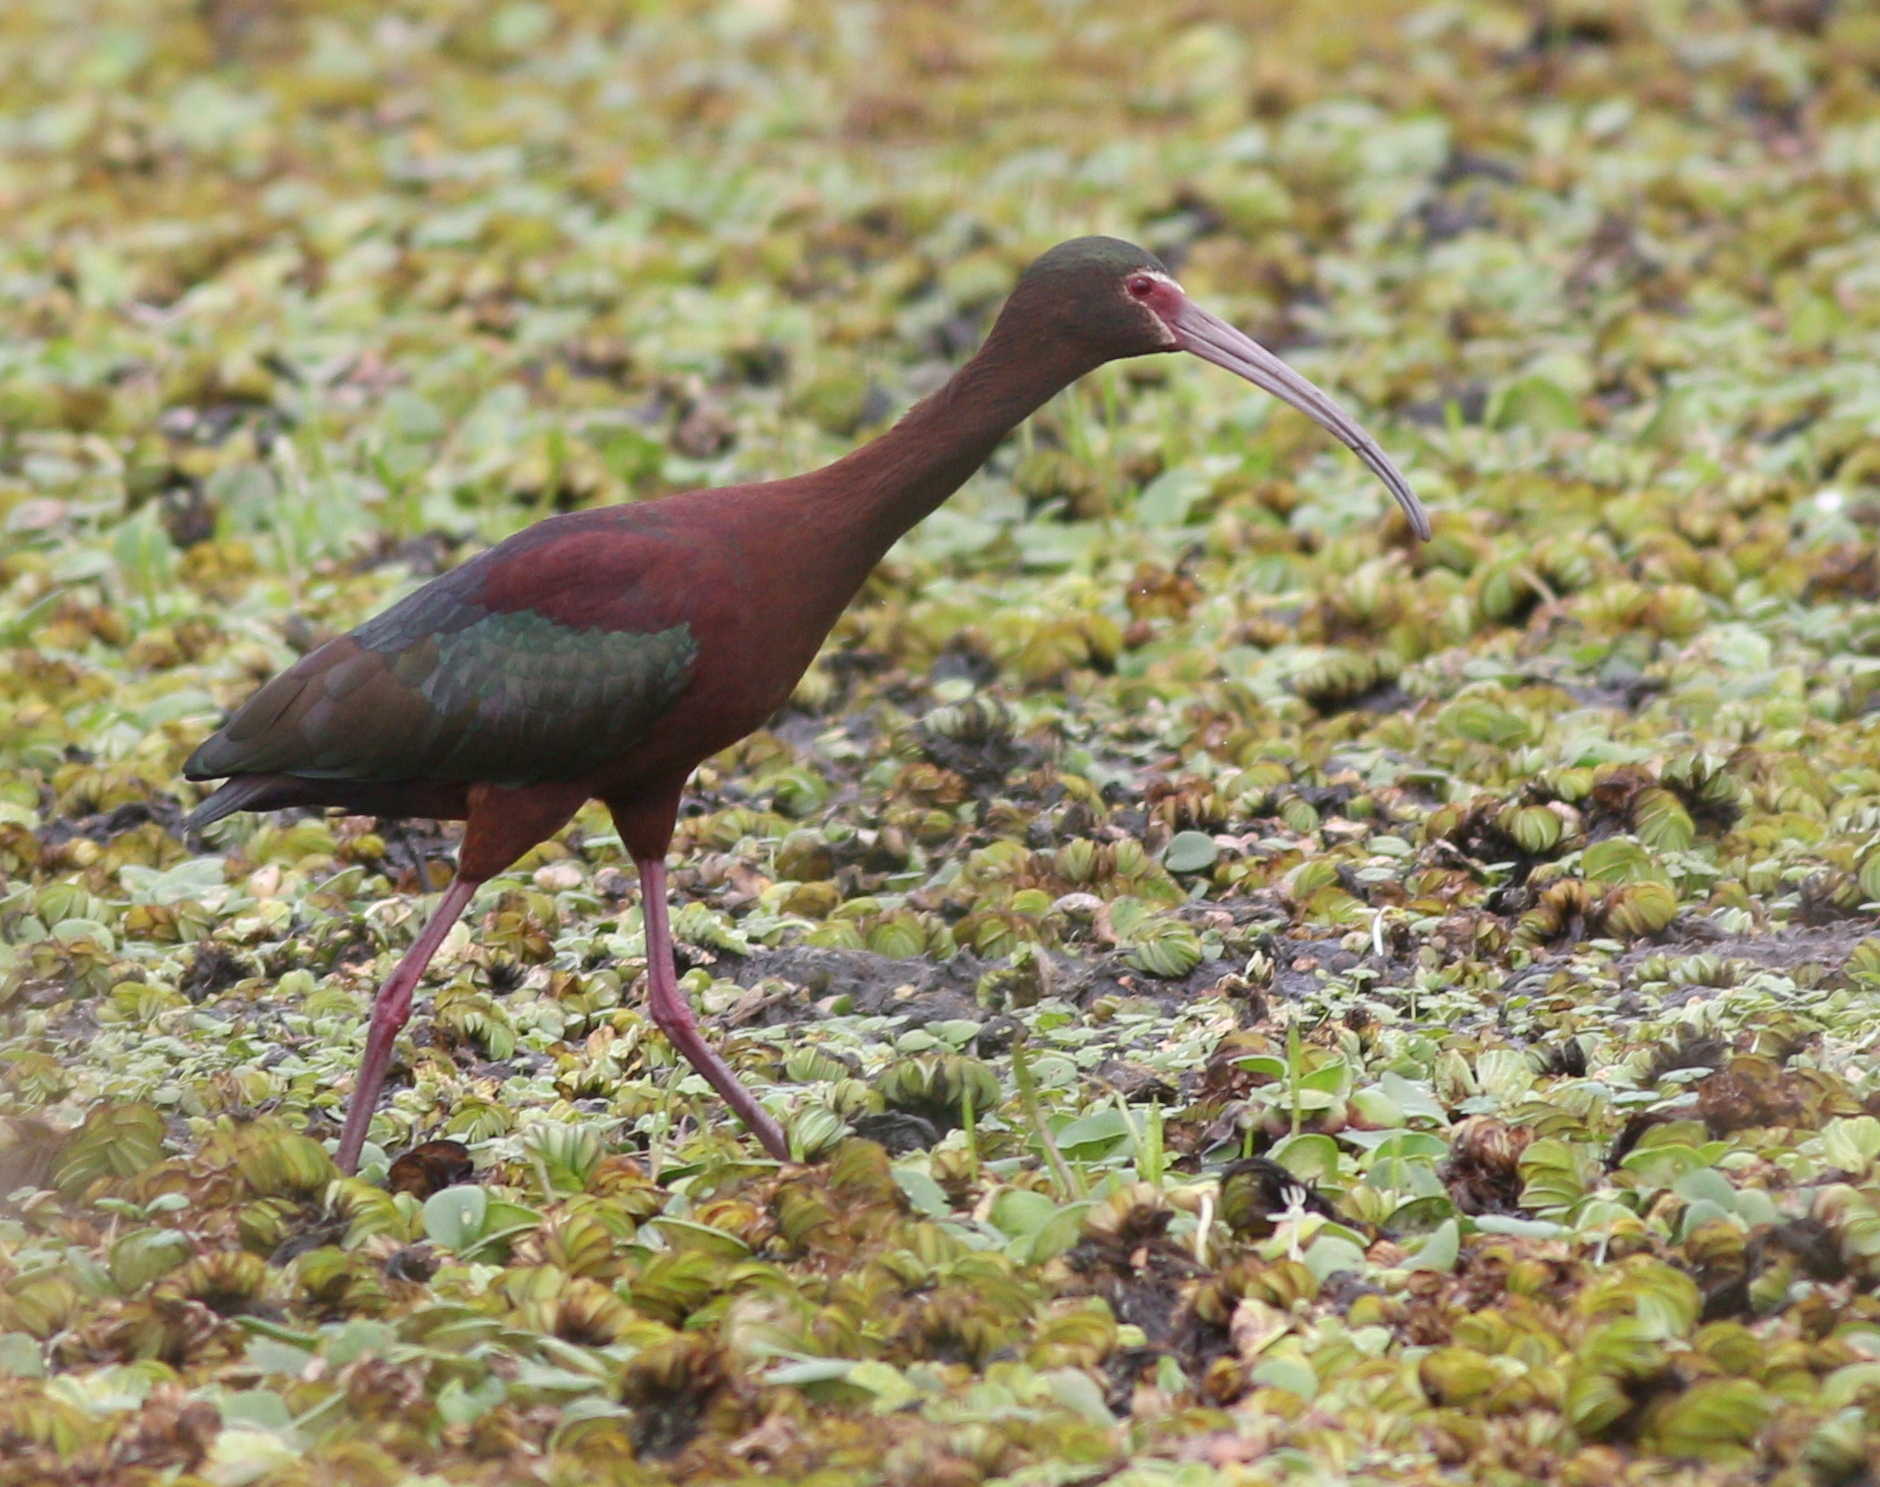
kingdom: Animalia
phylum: Chordata
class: Aves
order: Pelecaniformes
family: Threskiornithidae
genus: Plegadis
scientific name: Plegadis chihi
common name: White-faced ibis
